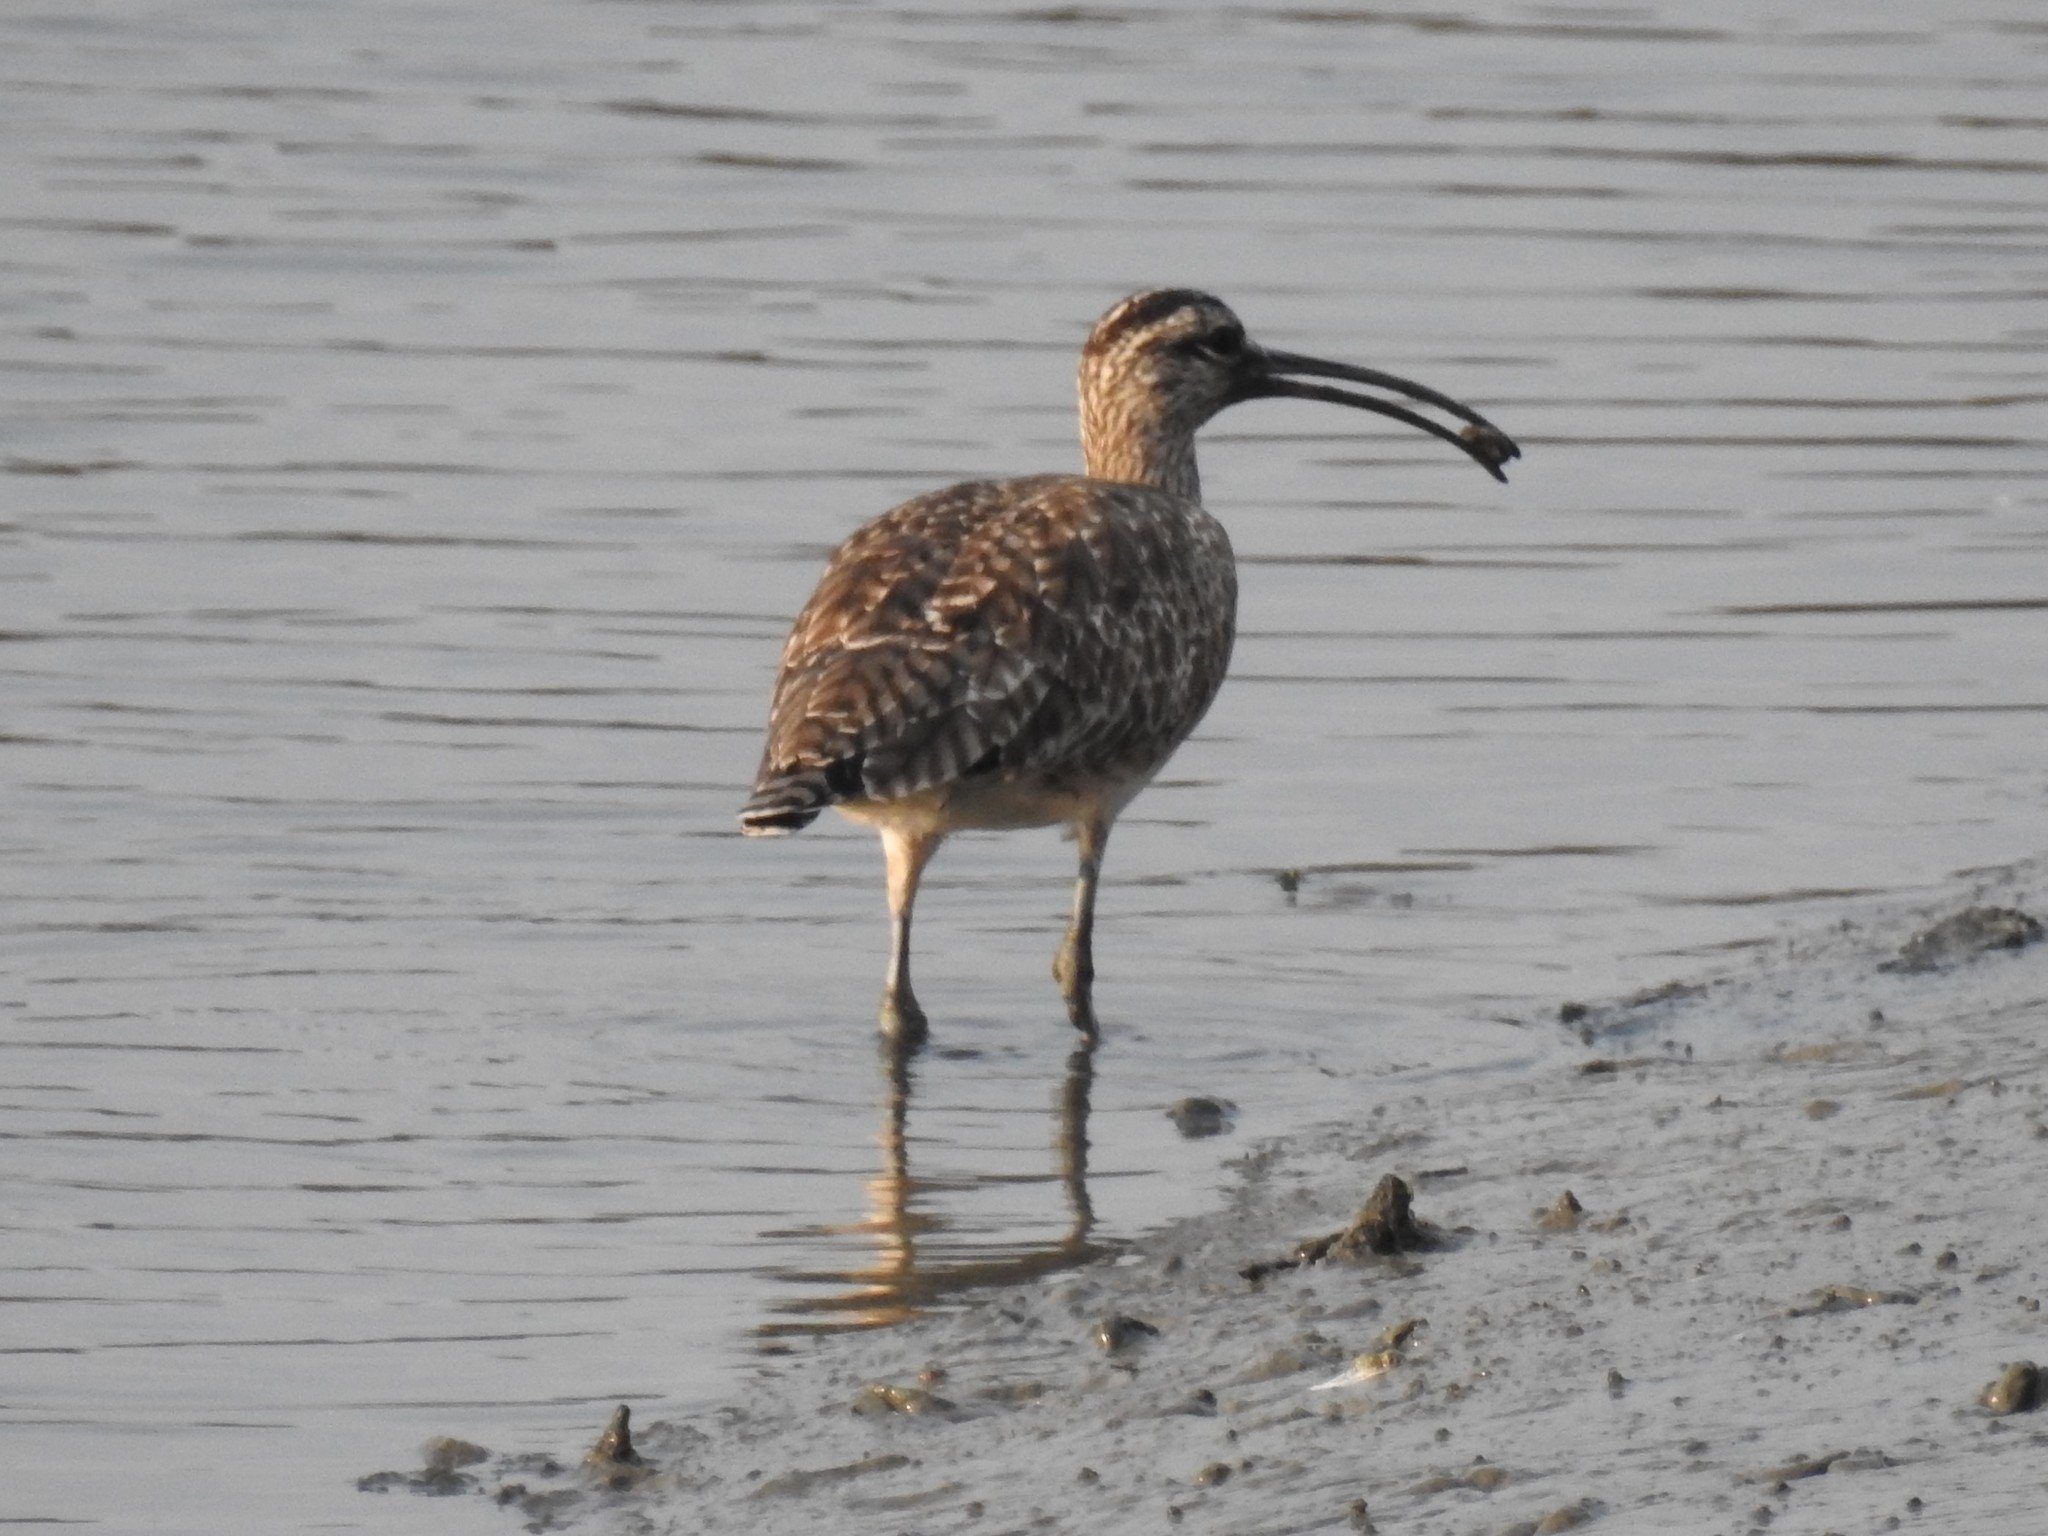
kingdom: Animalia
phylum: Chordata
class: Aves
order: Charadriiformes
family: Scolopacidae
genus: Numenius
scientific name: Numenius phaeopus
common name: Whimbrel
